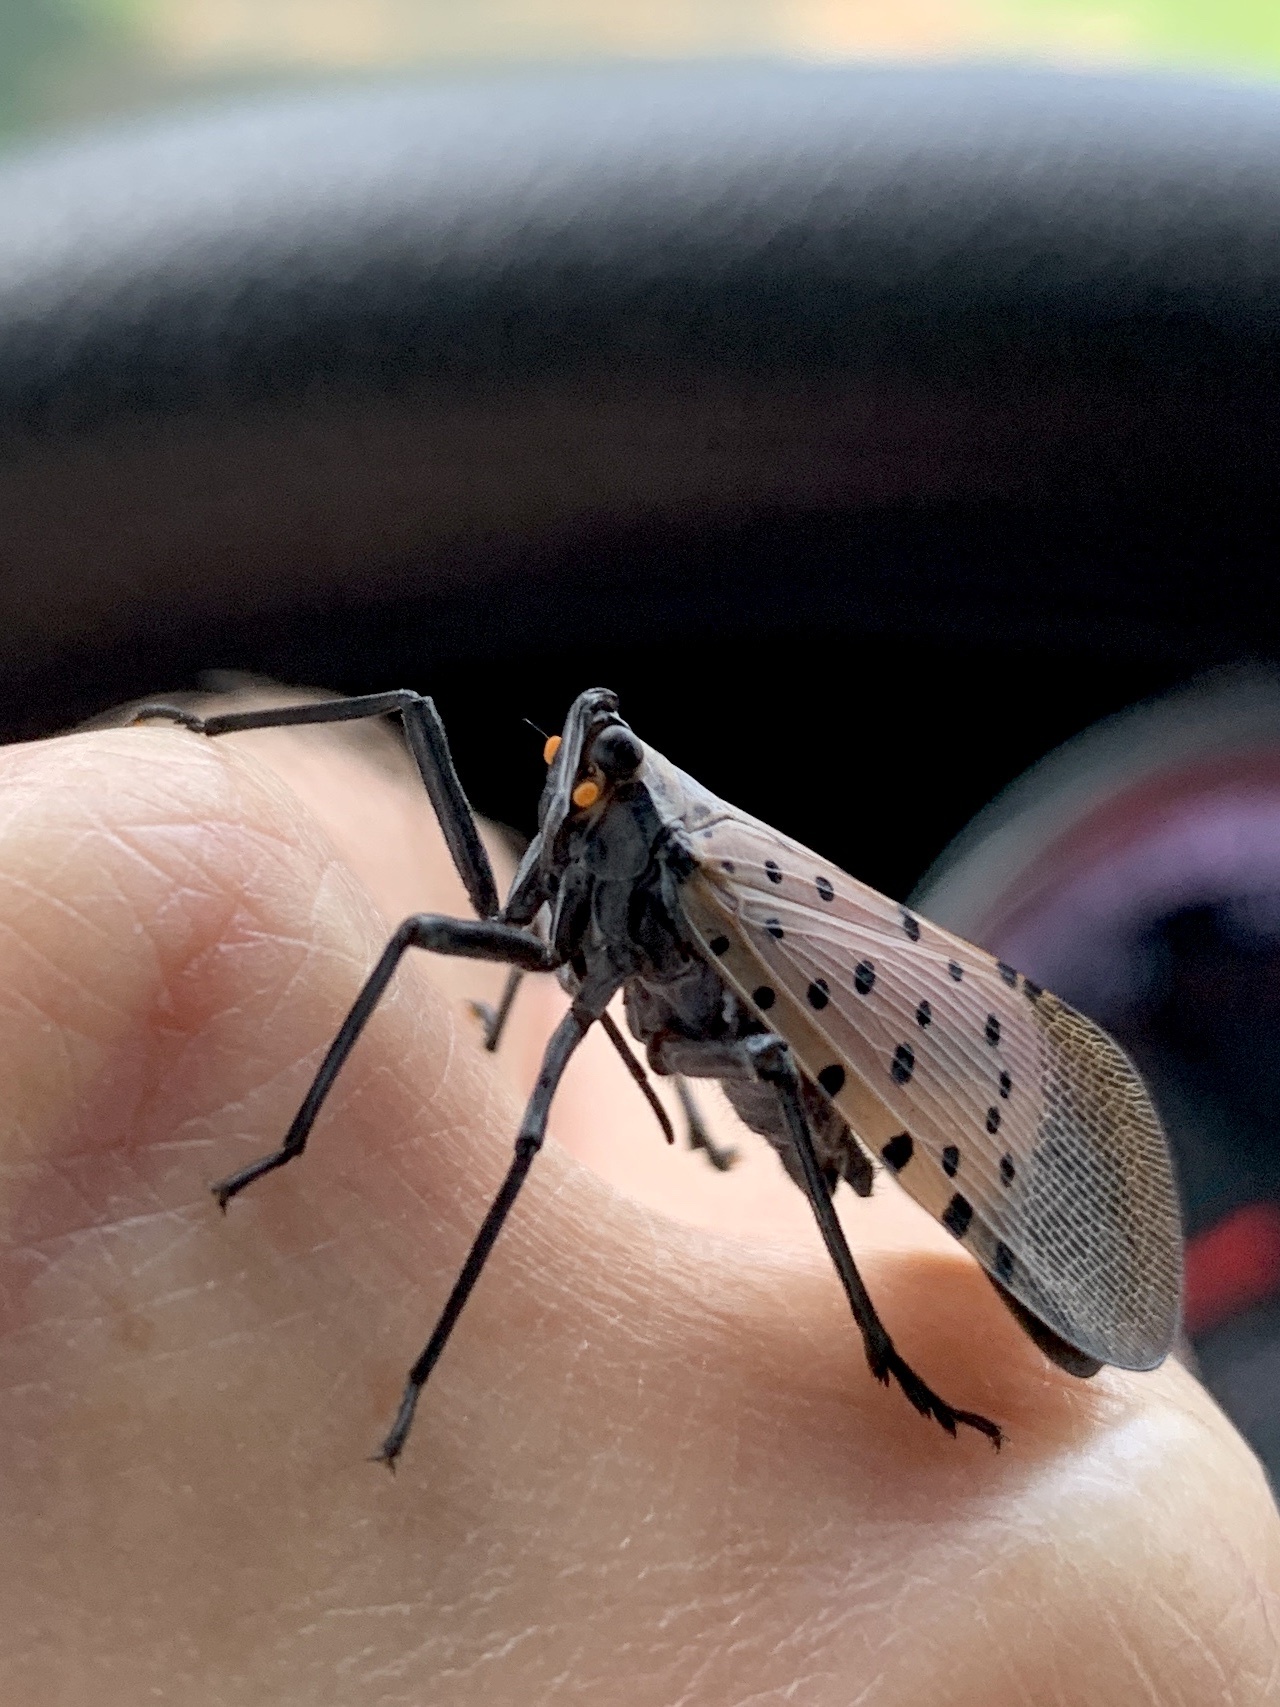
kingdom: Animalia
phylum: Arthropoda
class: Insecta
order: Hemiptera
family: Fulgoridae
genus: Lycorma
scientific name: Lycorma delicatula
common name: Spotted lanternfly
